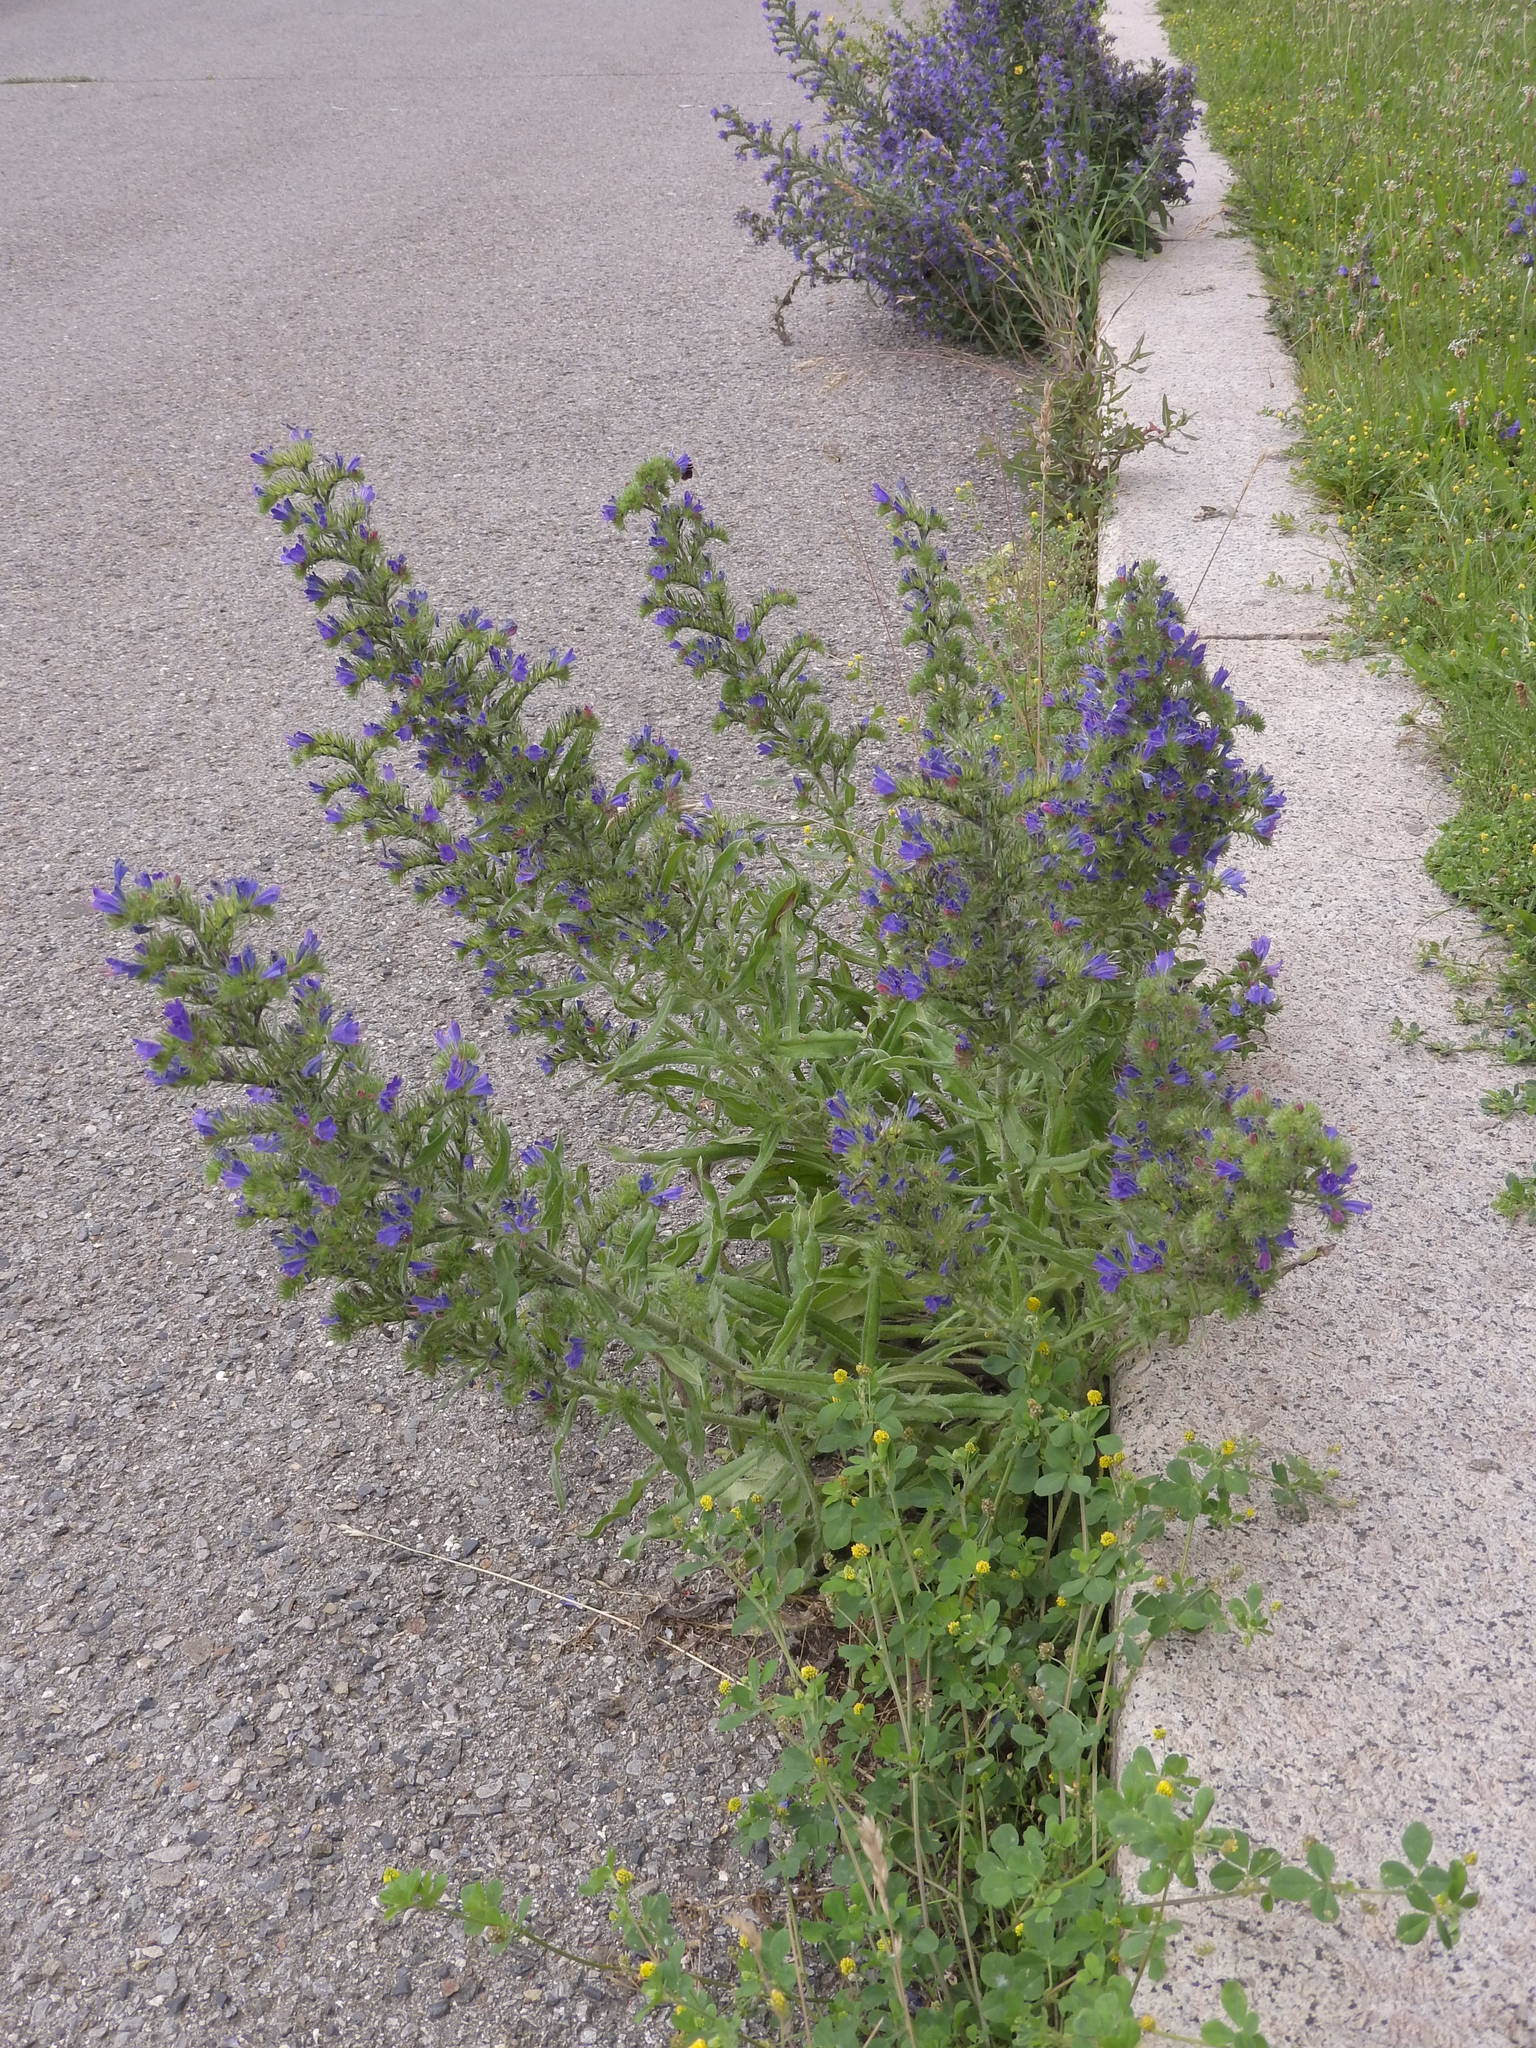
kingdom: Plantae
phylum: Tracheophyta
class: Magnoliopsida
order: Boraginales
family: Boraginaceae
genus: Echium
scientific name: Echium vulgare
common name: Common viper's bugloss
